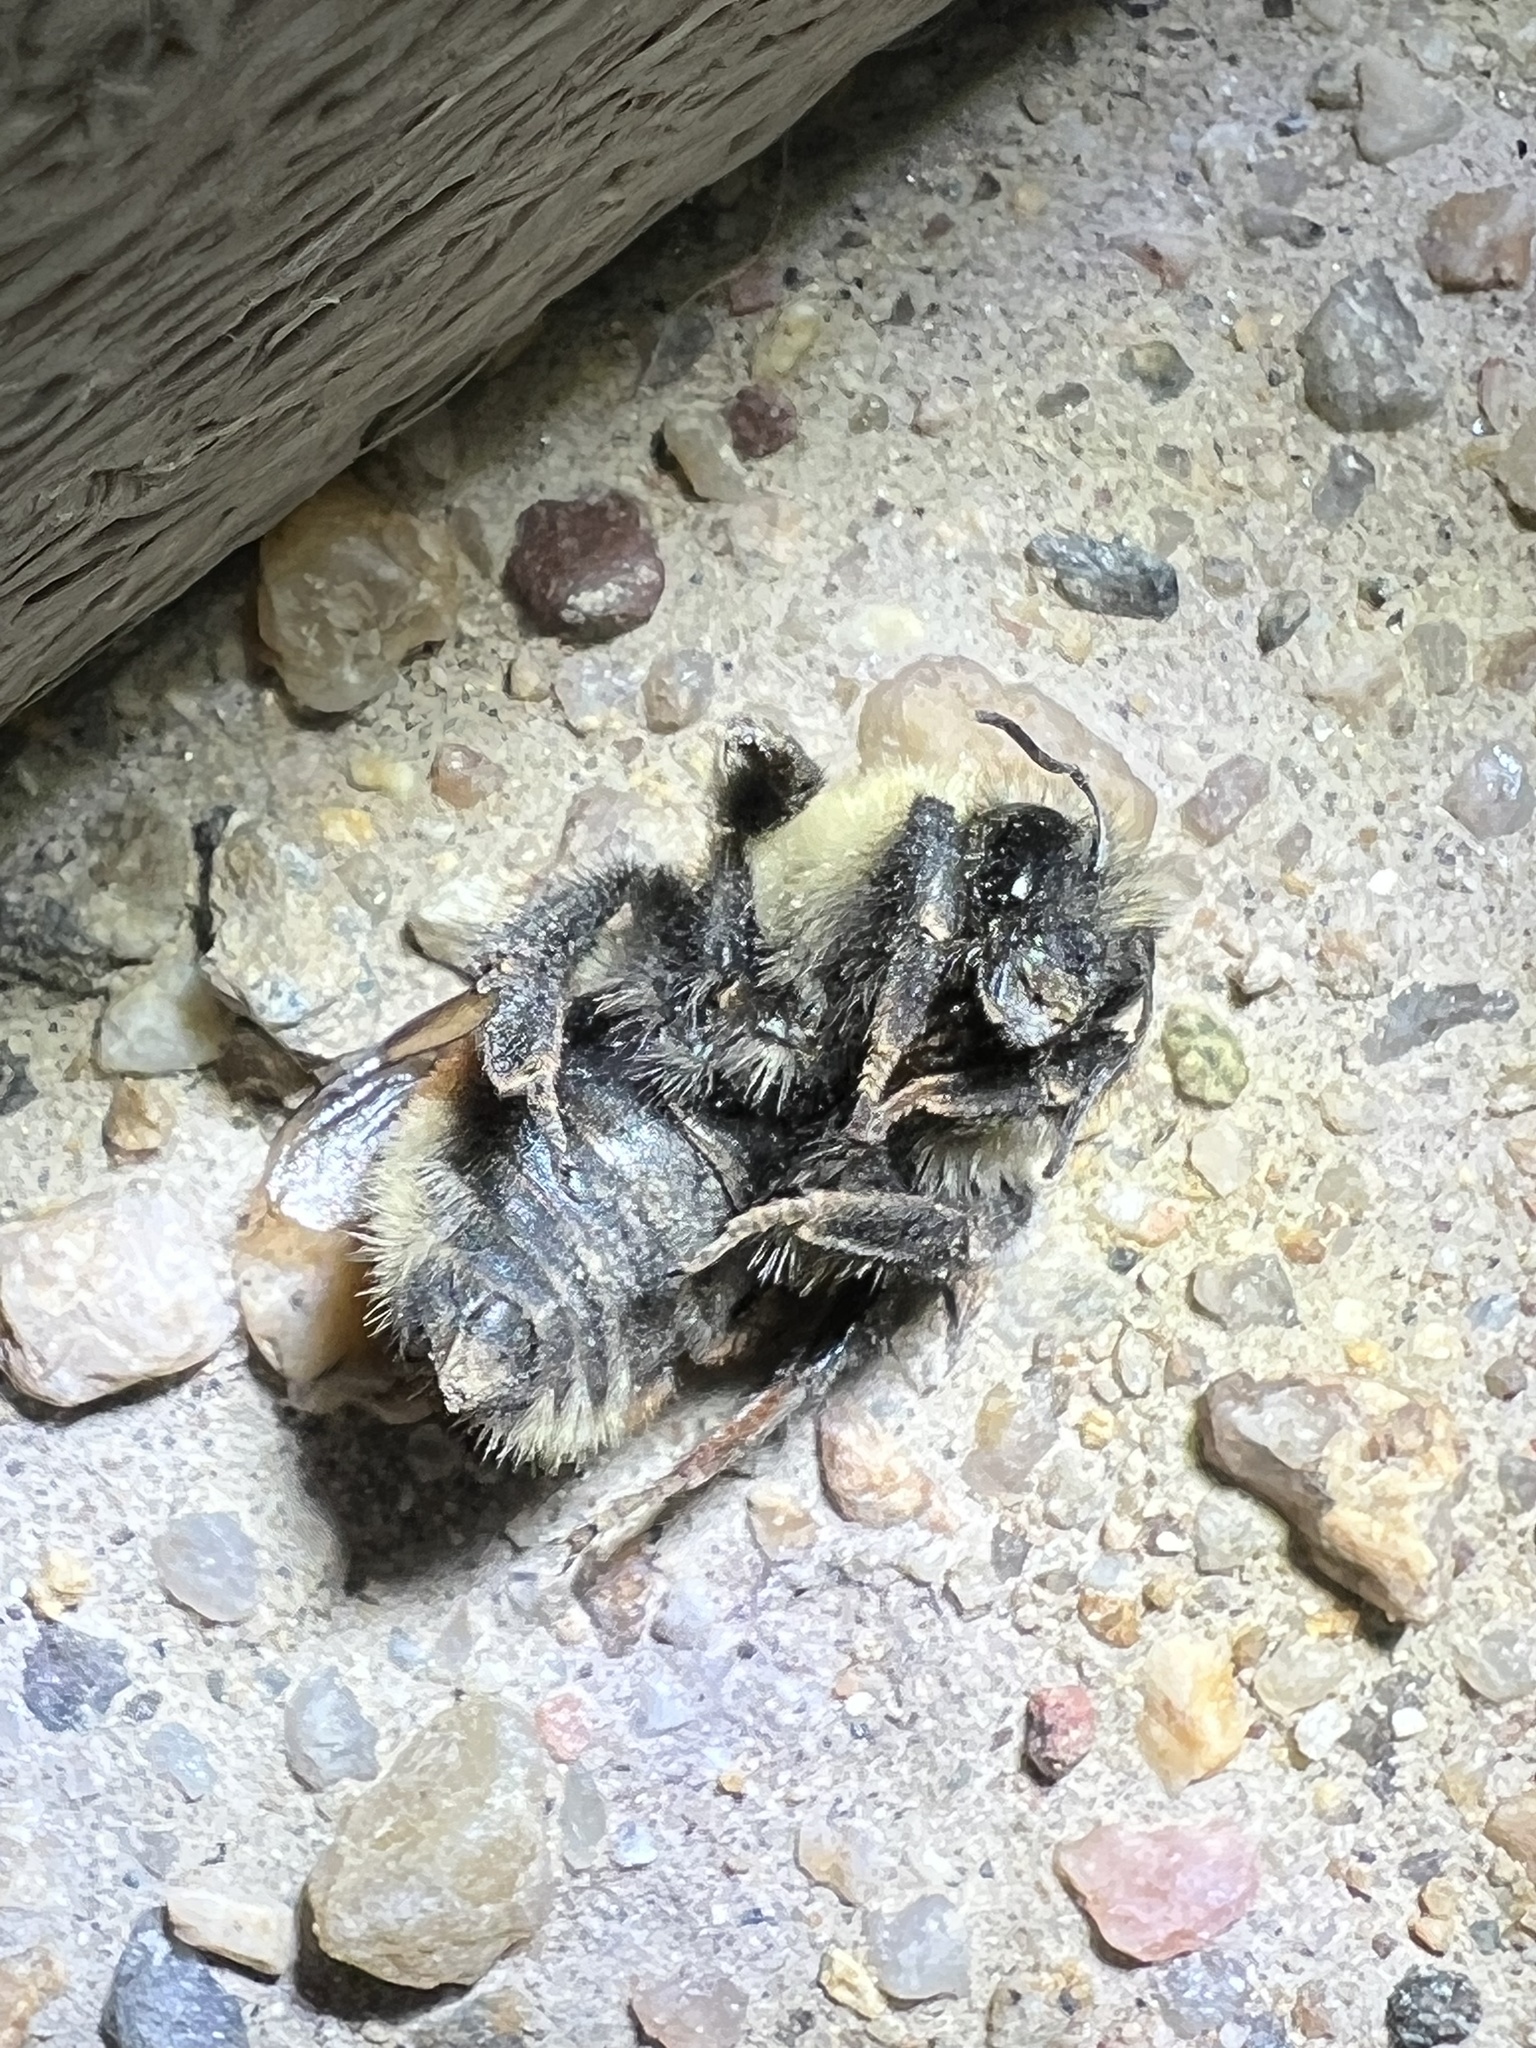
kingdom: Animalia
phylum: Arthropoda
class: Insecta
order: Hymenoptera
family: Apidae
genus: Bombus
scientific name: Bombus huntii
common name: Hunt bumble bee
